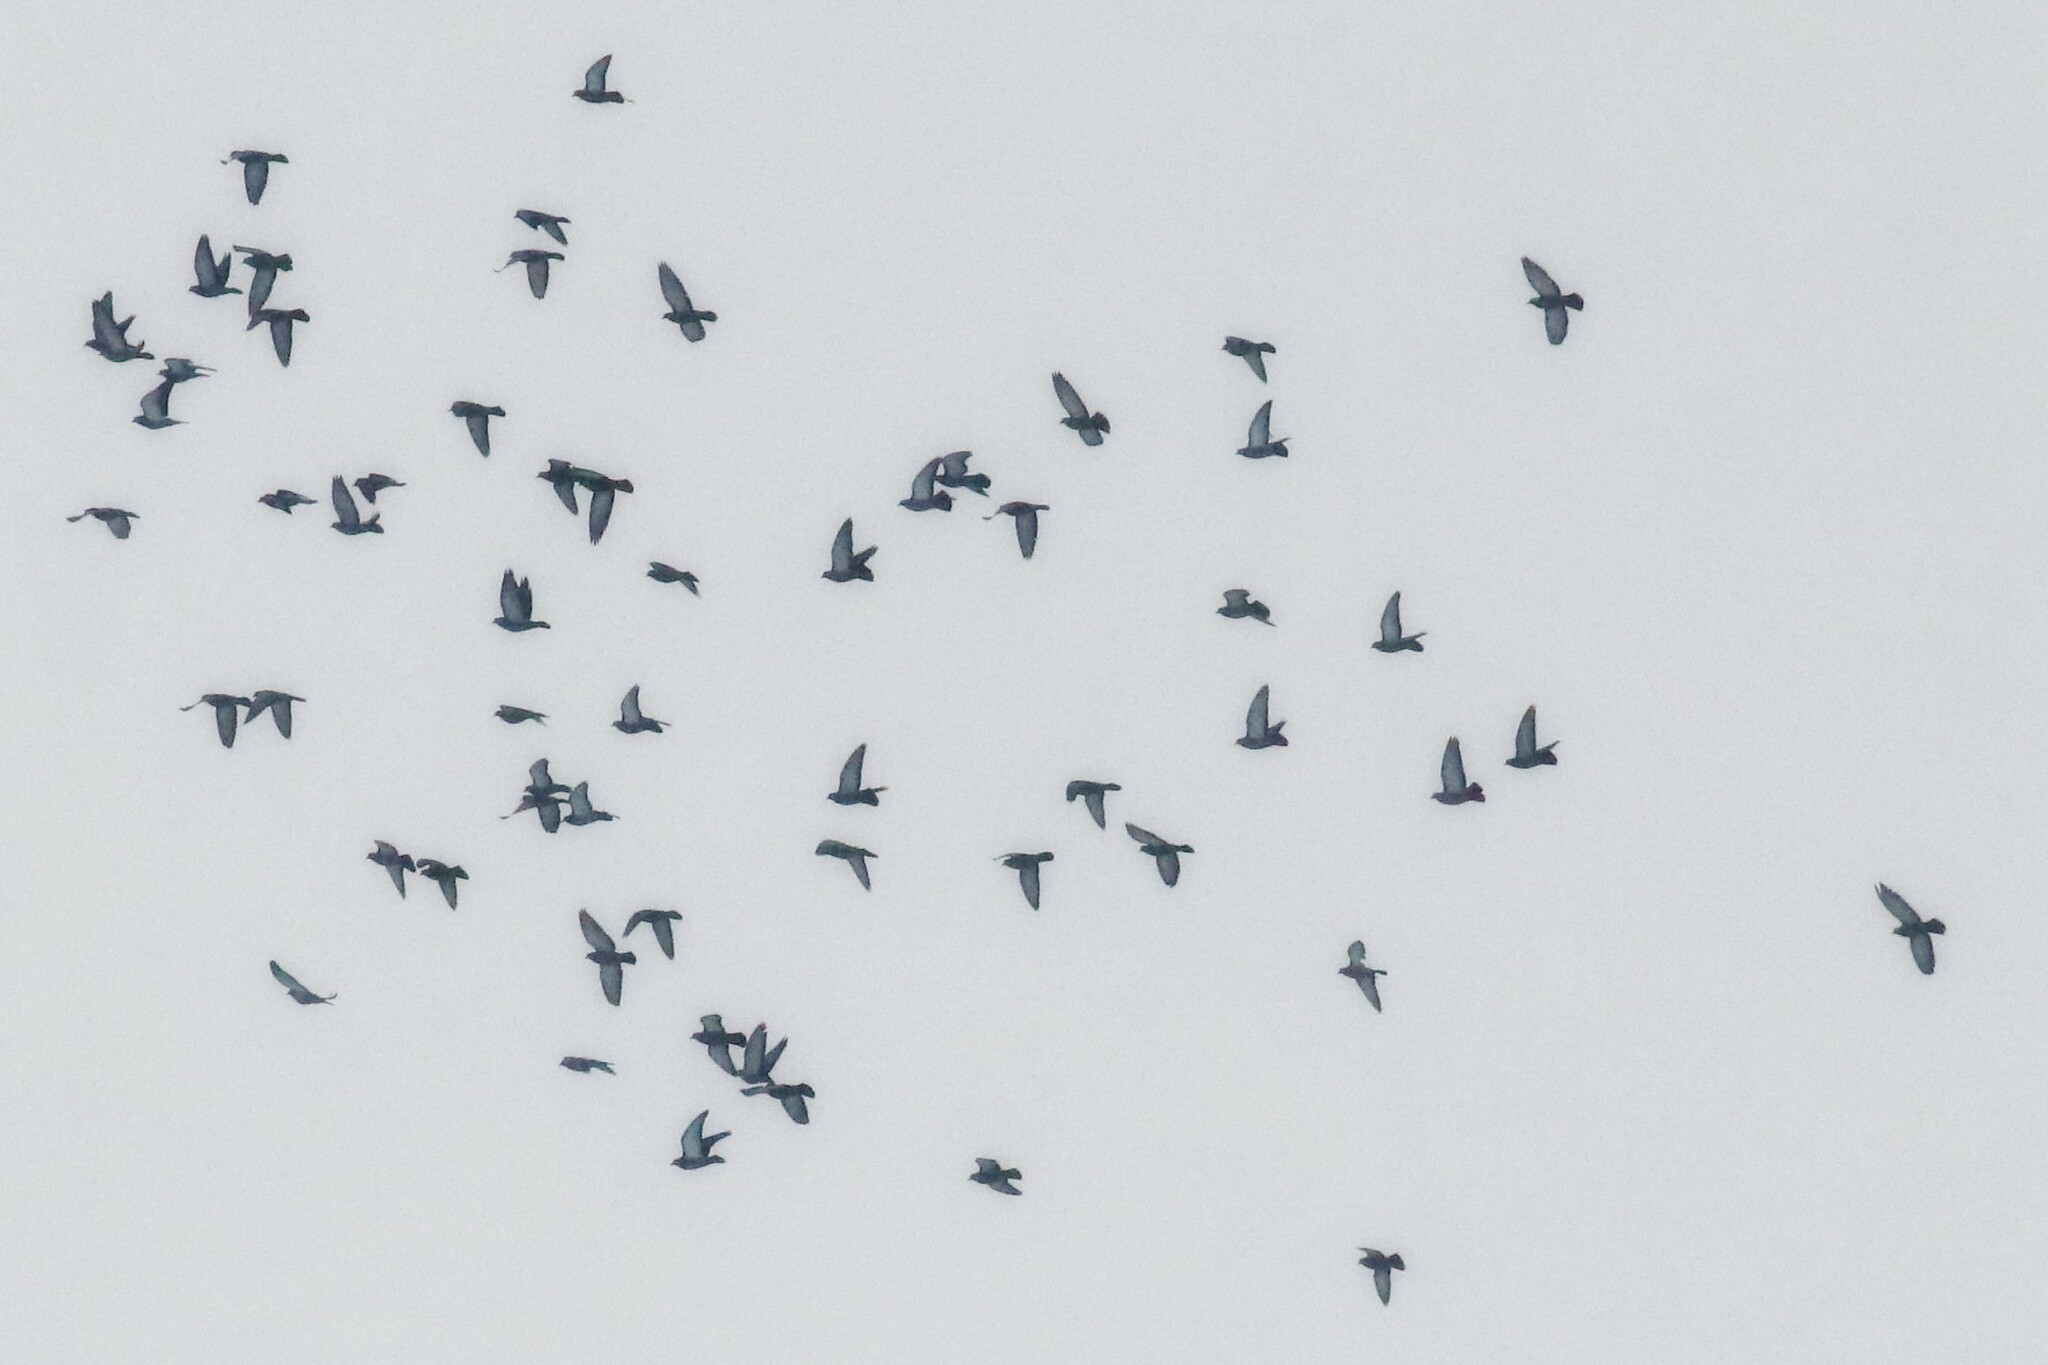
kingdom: Animalia
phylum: Chordata
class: Aves
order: Columbiformes
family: Columbidae
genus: Columba
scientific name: Columba livia
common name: Rock pigeon
